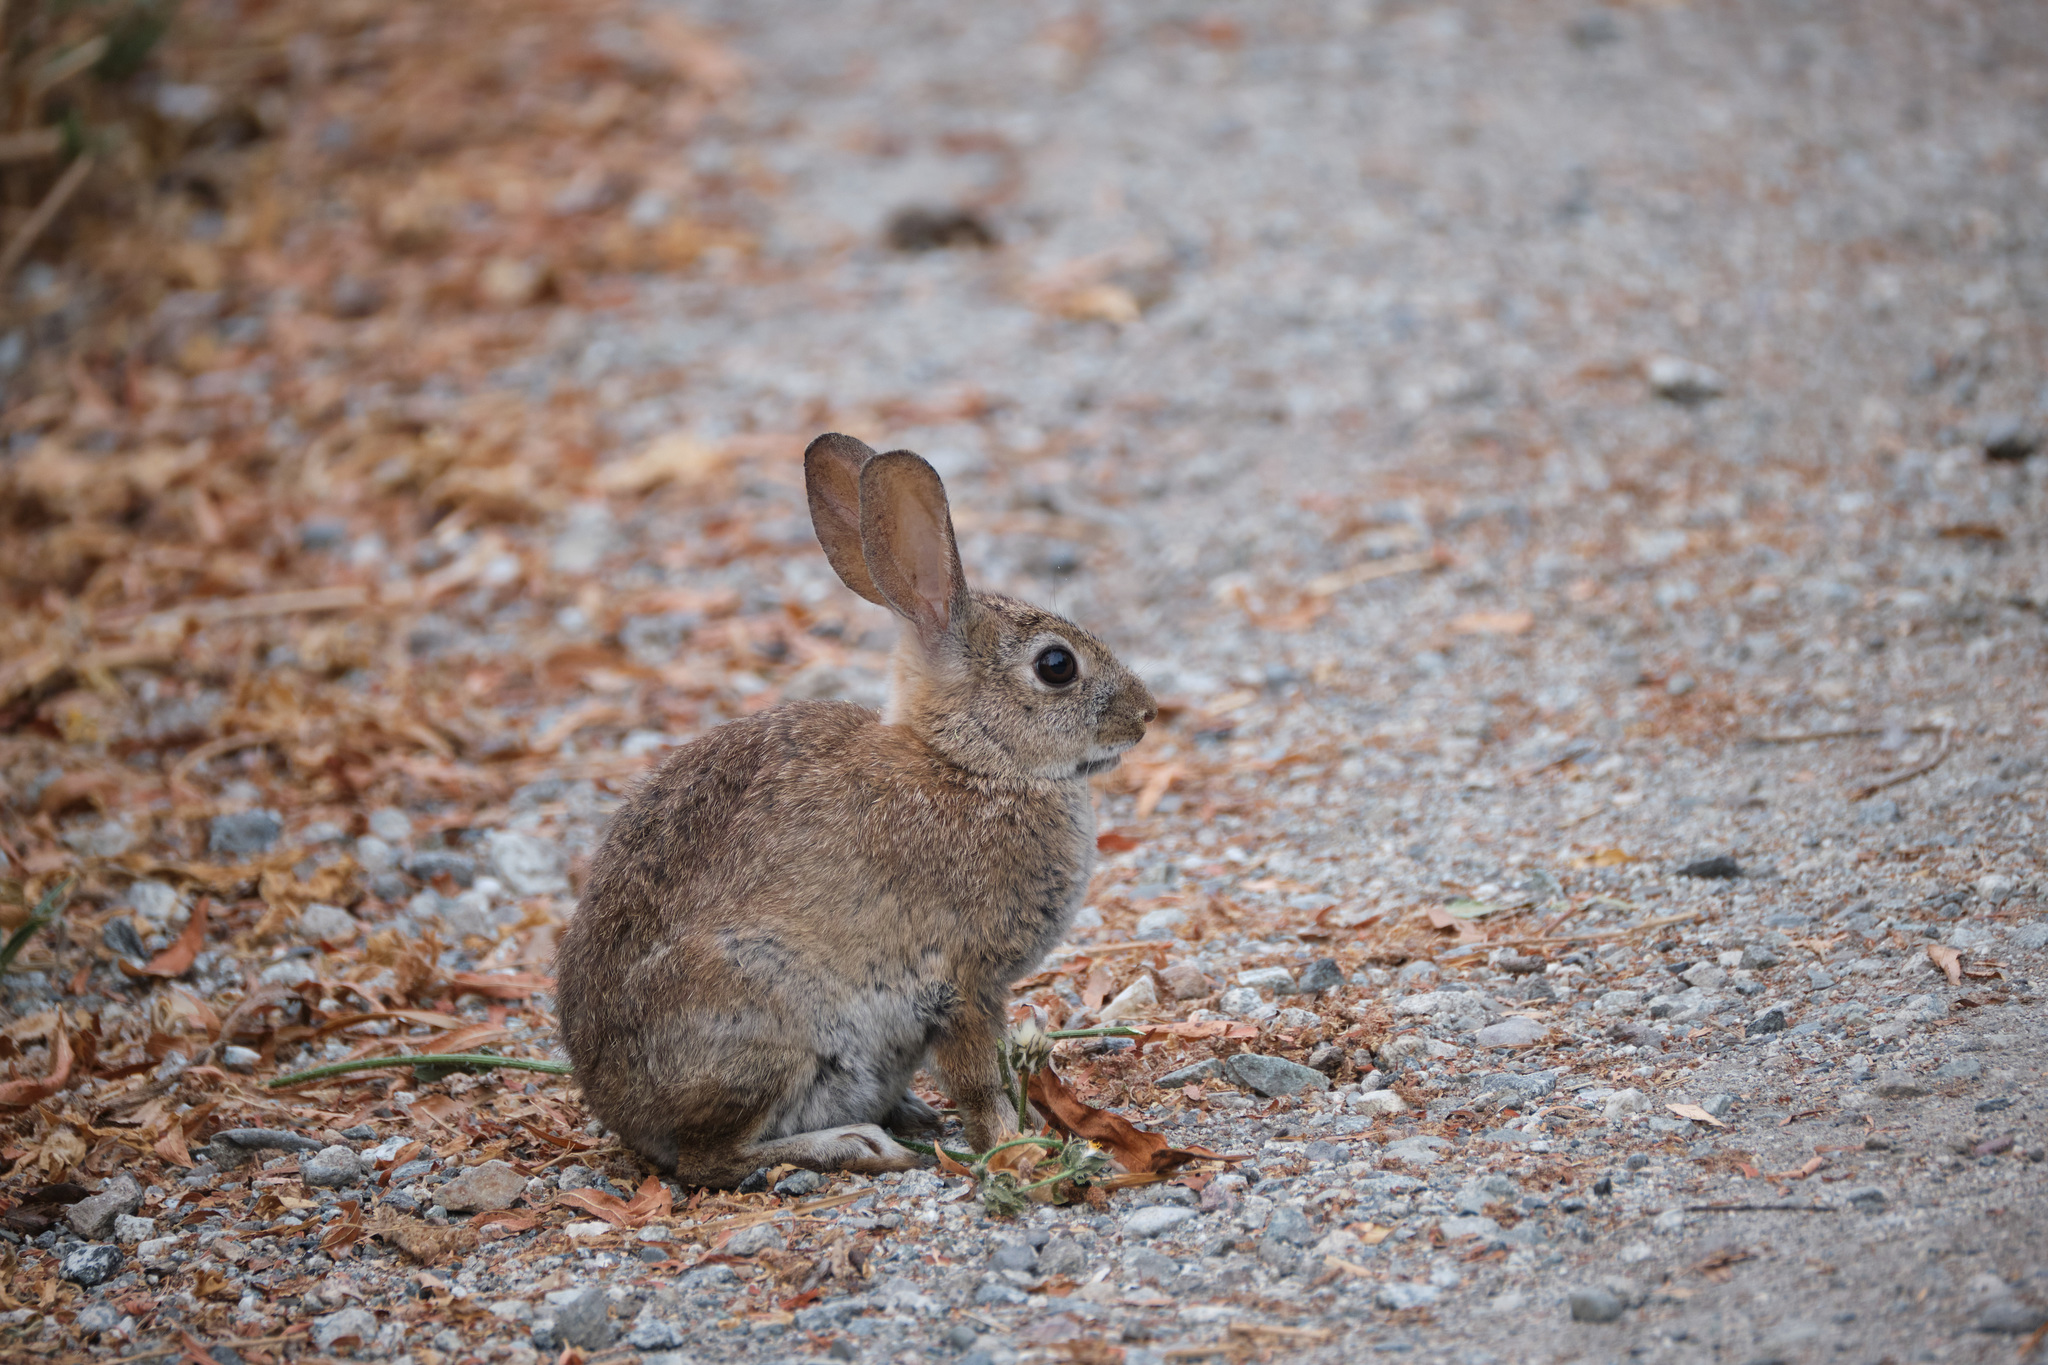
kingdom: Animalia
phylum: Chordata
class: Mammalia
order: Lagomorpha
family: Leporidae
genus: Sylvilagus
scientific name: Sylvilagus audubonii
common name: Desert cottontail
